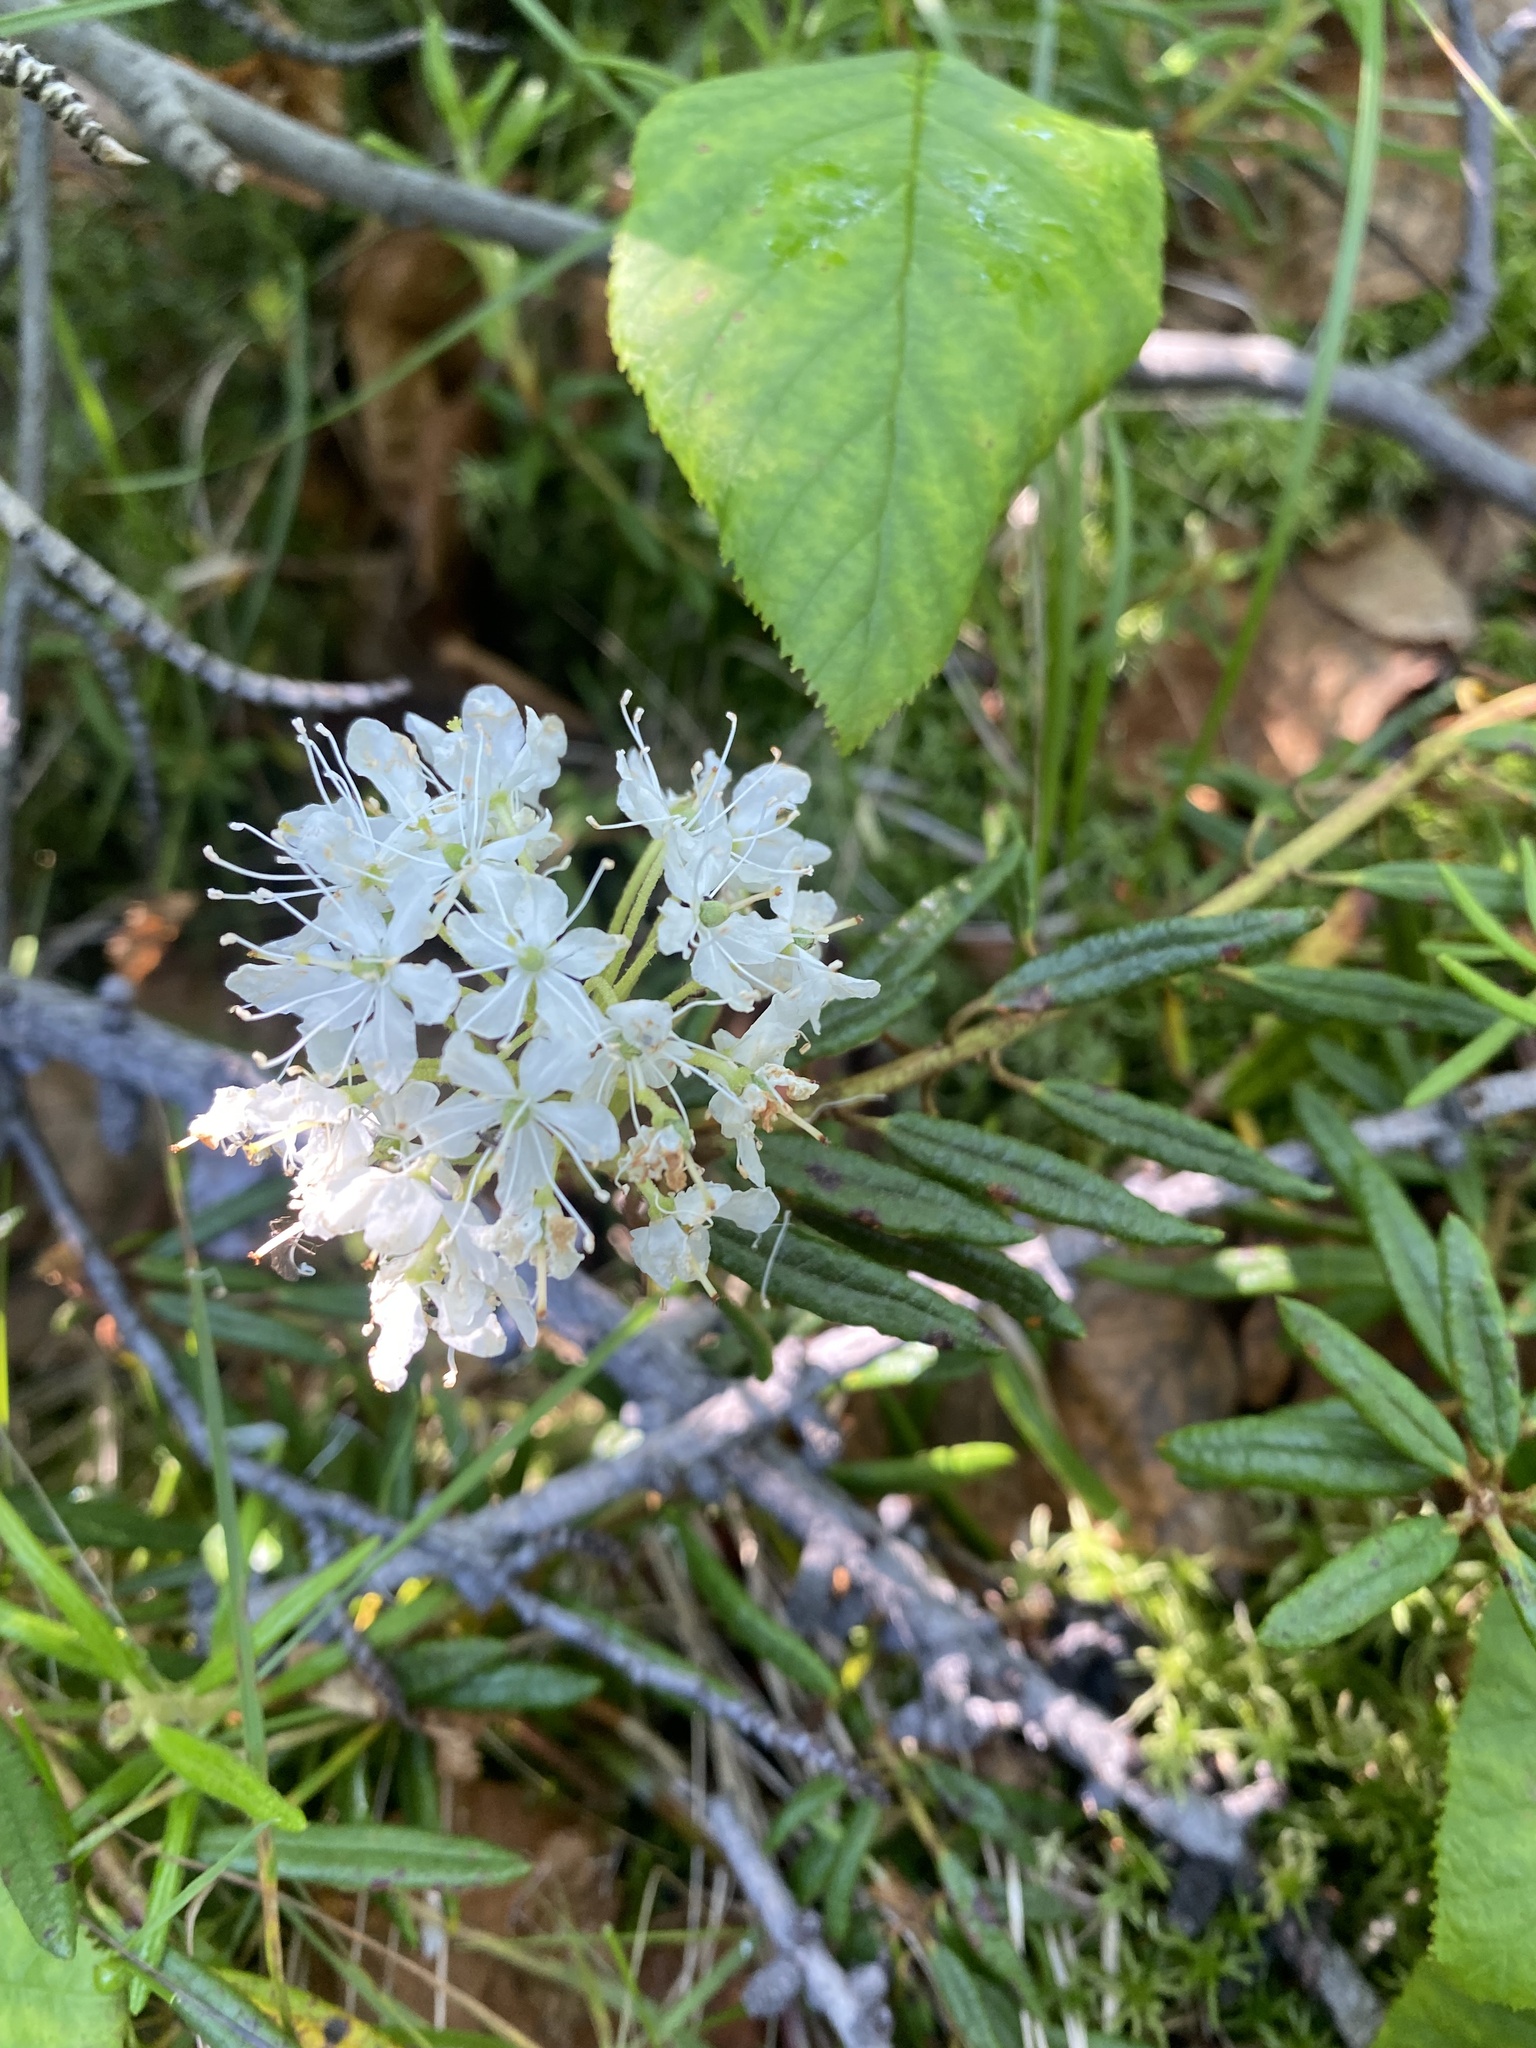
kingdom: Plantae
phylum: Tracheophyta
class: Magnoliopsida
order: Ericales
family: Ericaceae
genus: Rhododendron
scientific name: Rhododendron tomentosum
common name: Marsh labrador tea
